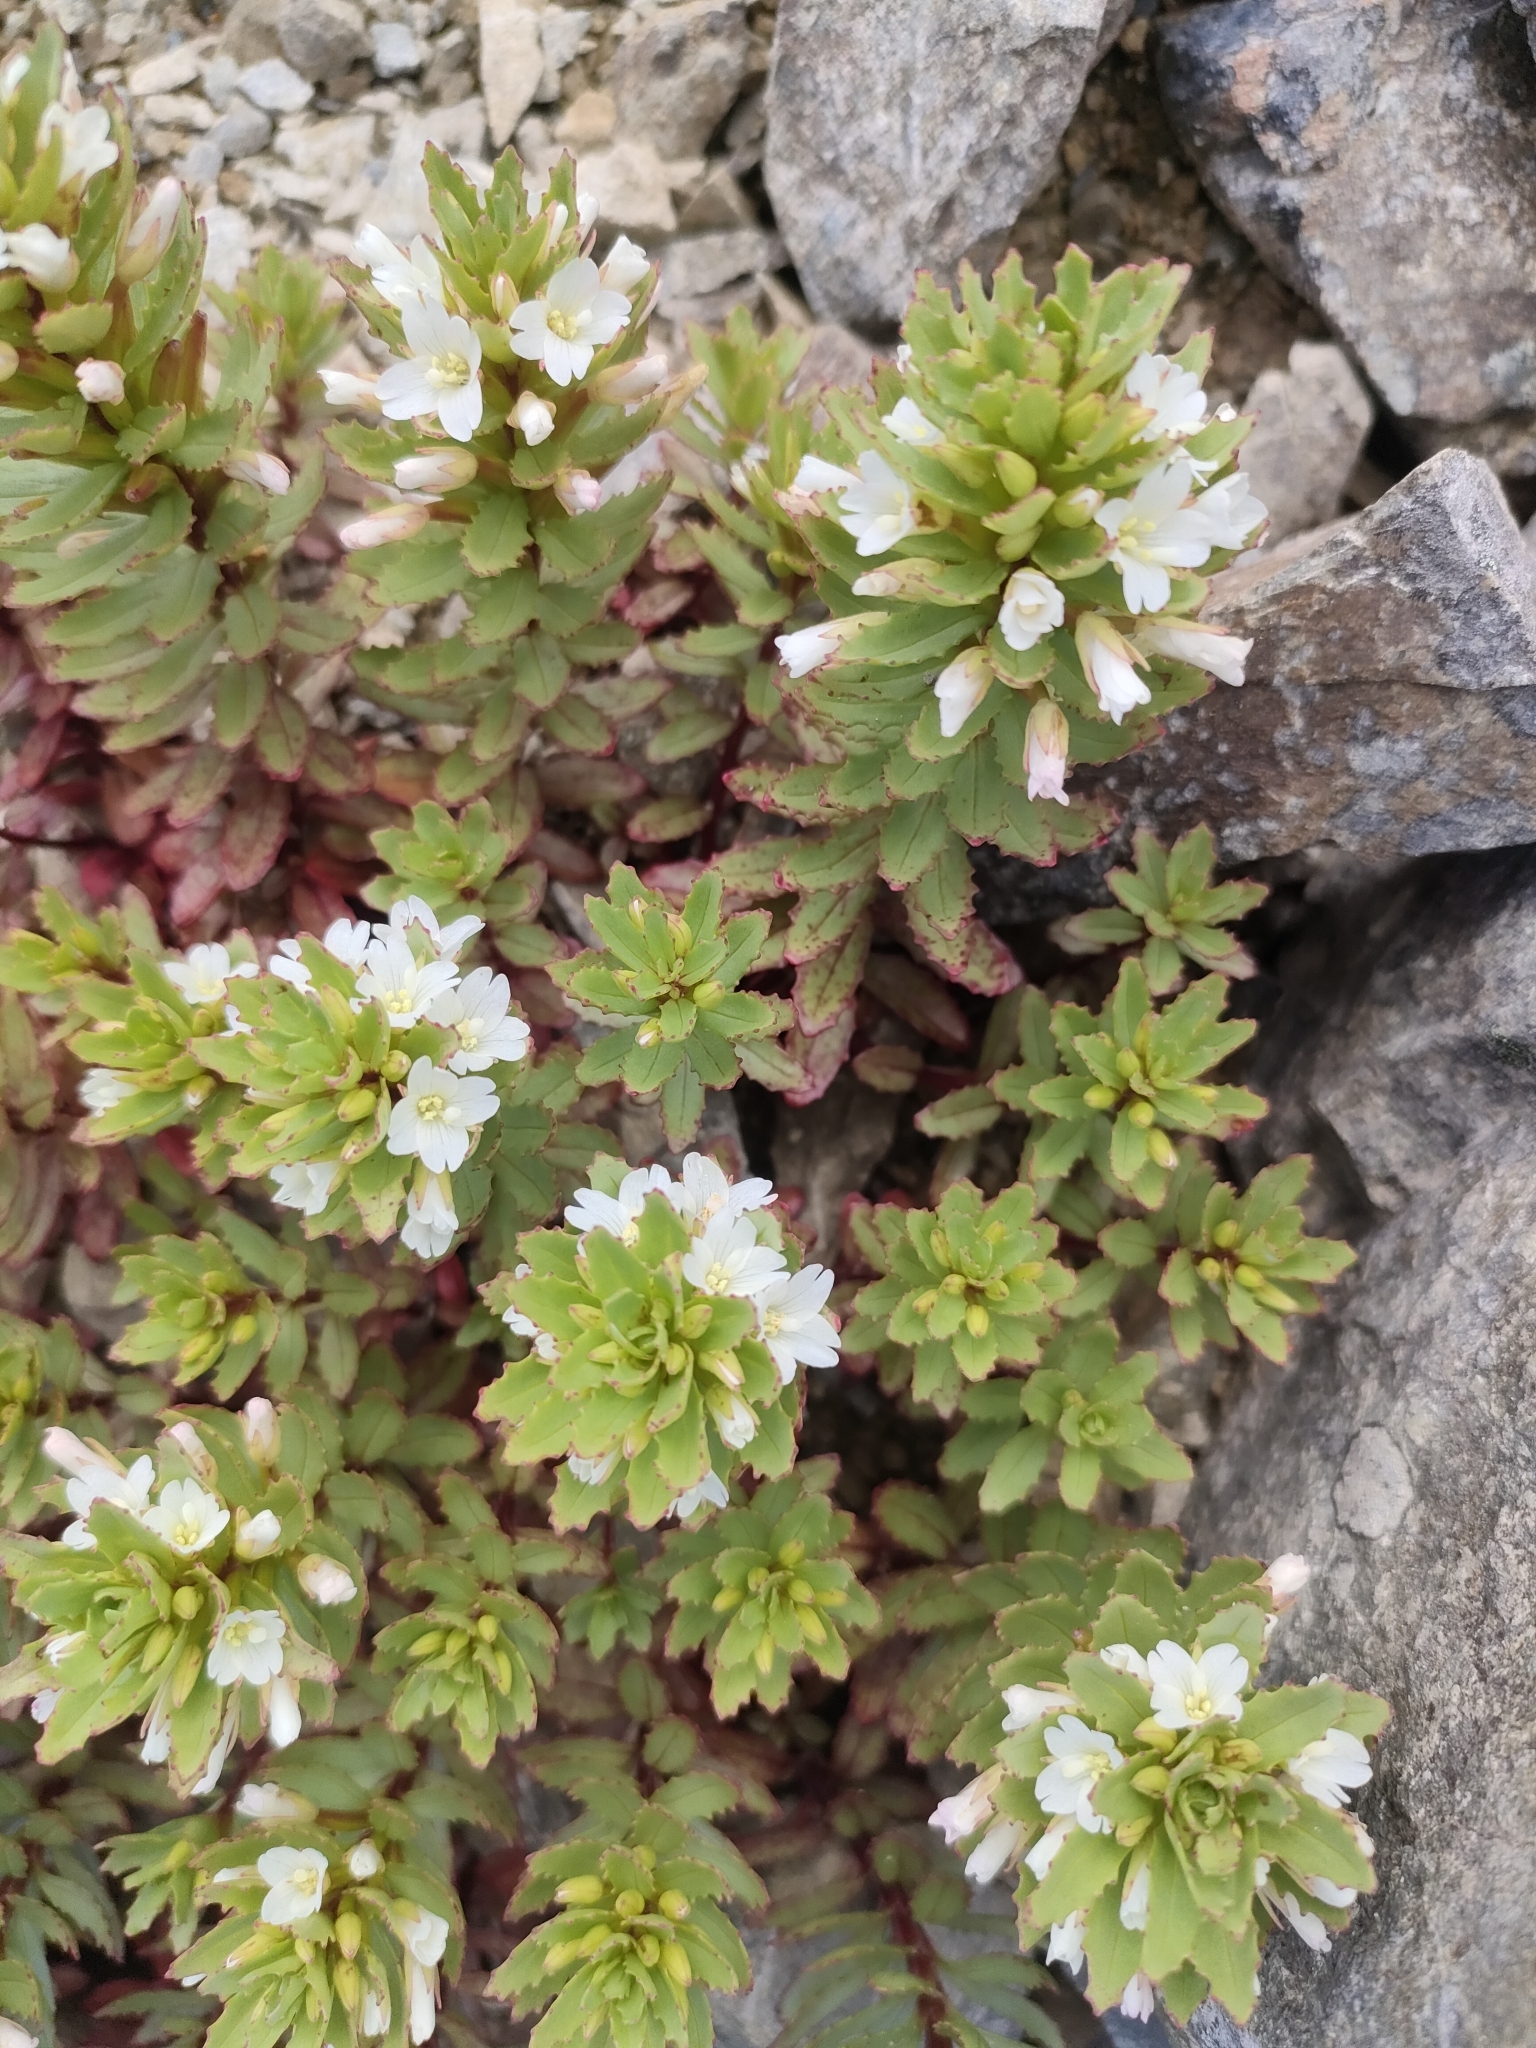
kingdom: Plantae
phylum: Tracheophyta
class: Magnoliopsida
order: Myrtales
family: Onagraceae
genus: Epilobium
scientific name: Epilobium pycnostachyum
